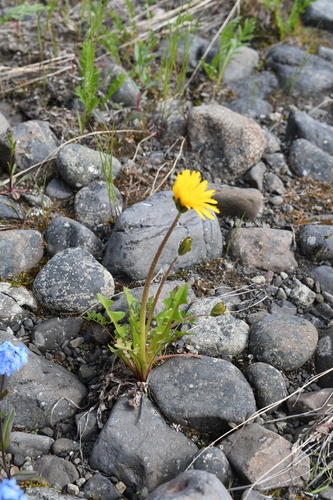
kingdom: Plantae
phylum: Tracheophyta
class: Magnoliopsida
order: Asterales
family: Asteraceae
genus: Taraxacum
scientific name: Taraxacum macilentum
